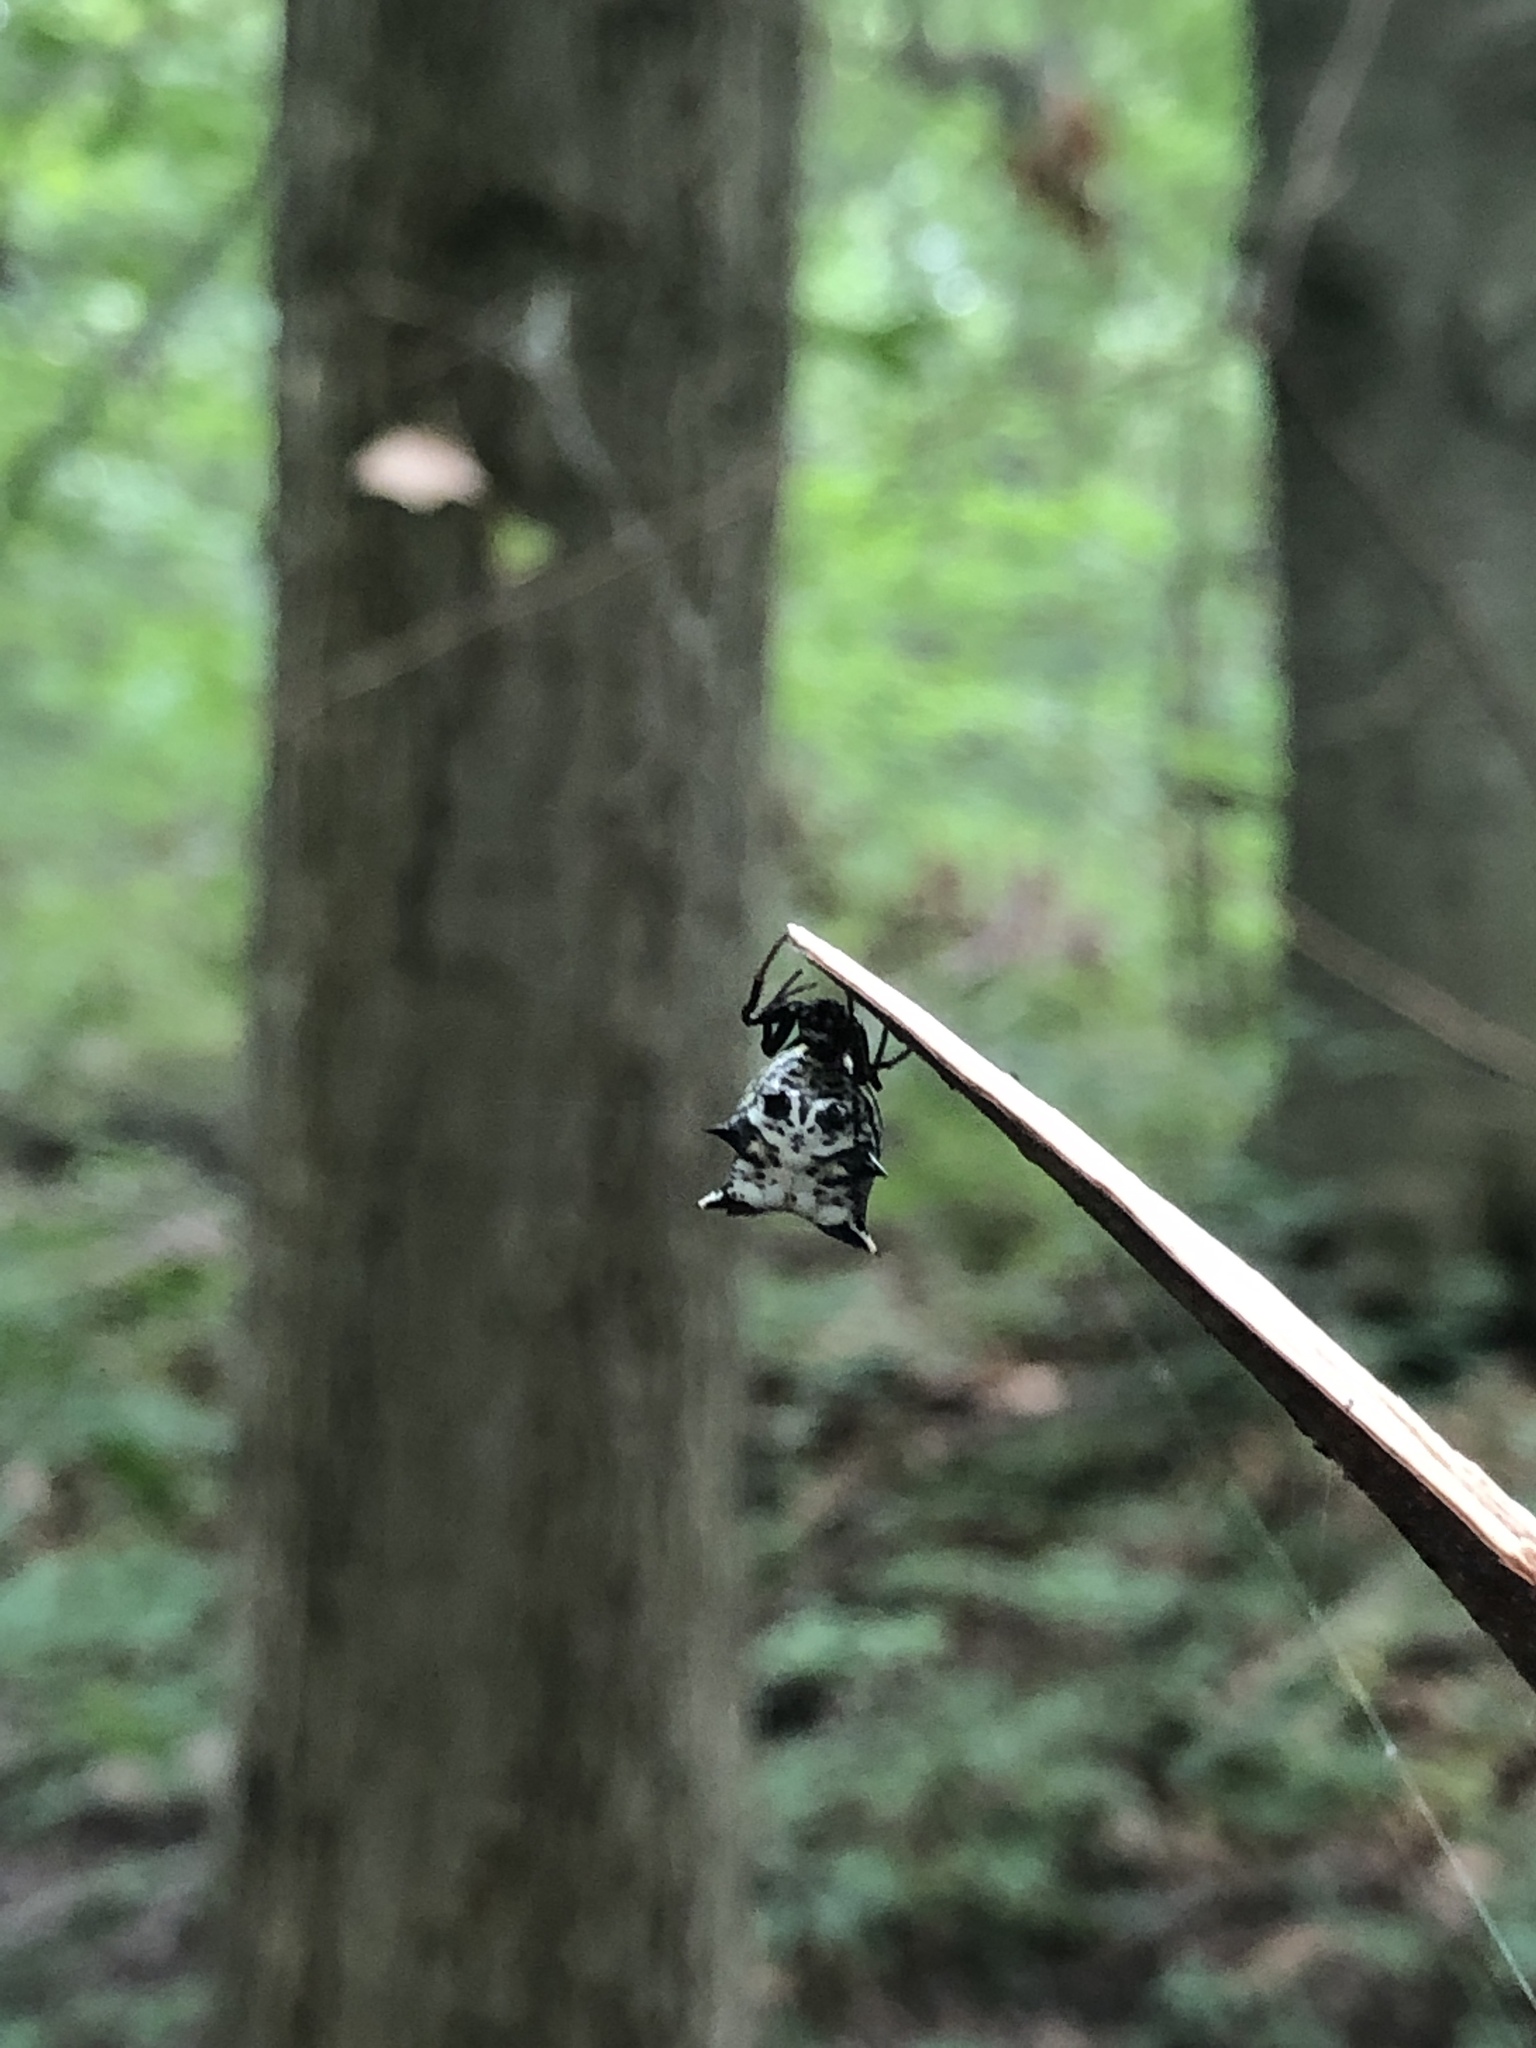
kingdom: Animalia
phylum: Arthropoda
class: Arachnida
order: Araneae
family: Araneidae
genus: Micrathena
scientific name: Micrathena gracilis
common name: Orb weavers
